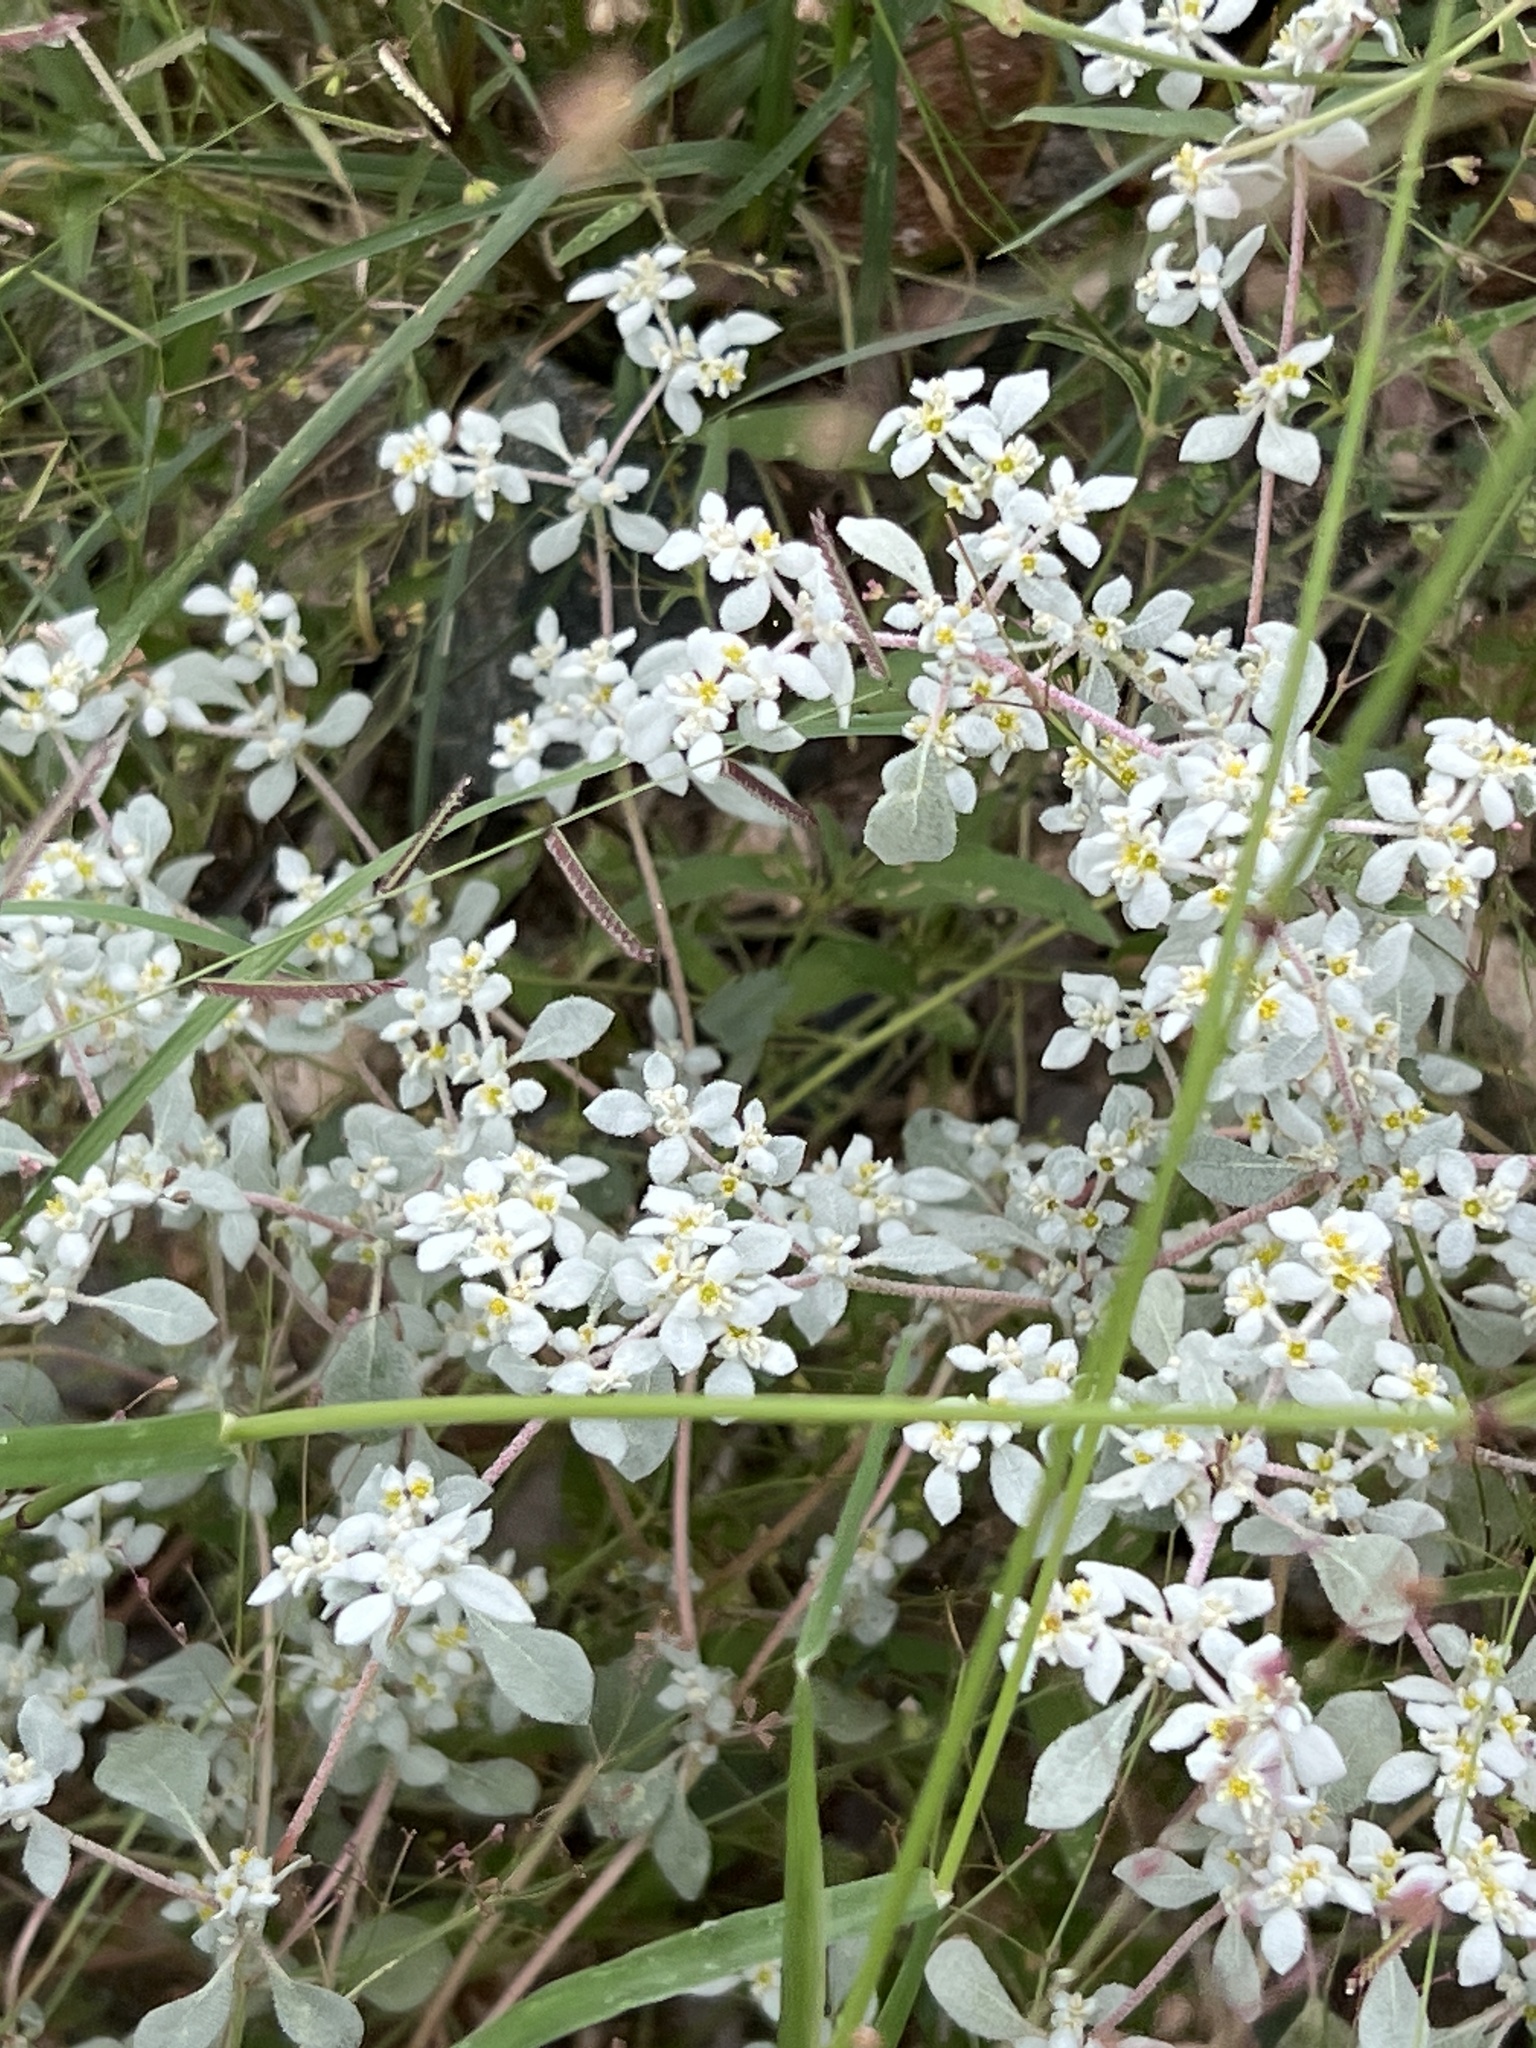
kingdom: Plantae
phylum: Tracheophyta
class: Magnoliopsida
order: Caryophyllales
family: Amaranthaceae
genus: Tidestromia
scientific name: Tidestromia lanuginosa
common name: Woolly tidestromia
